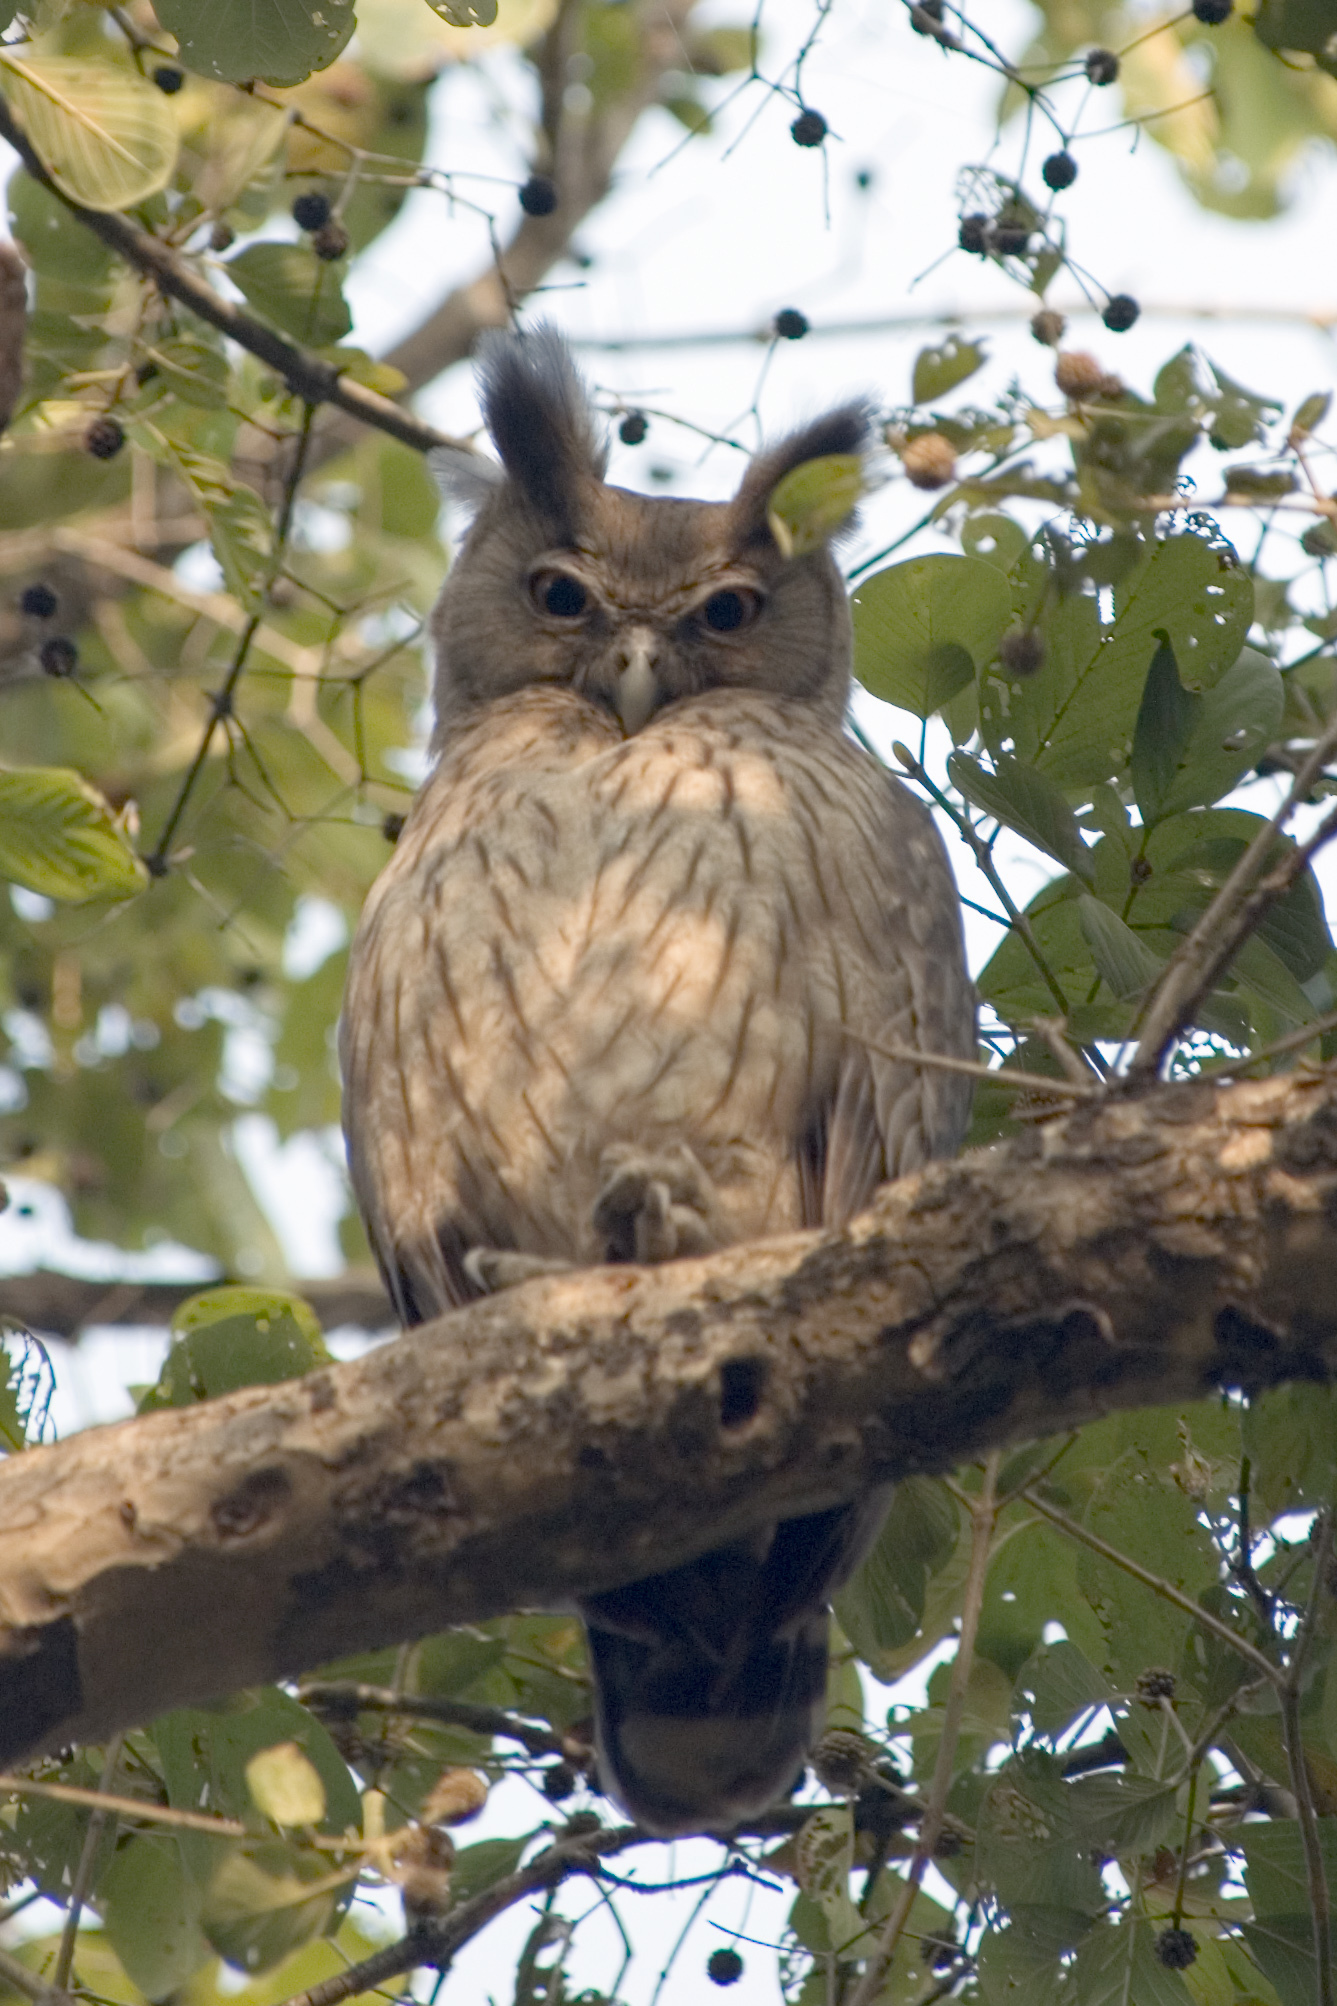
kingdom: Animalia
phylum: Chordata
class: Aves
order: Strigiformes
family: Strigidae
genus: Ketupa
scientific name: Ketupa coromanda
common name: Dusky eagle-owl
